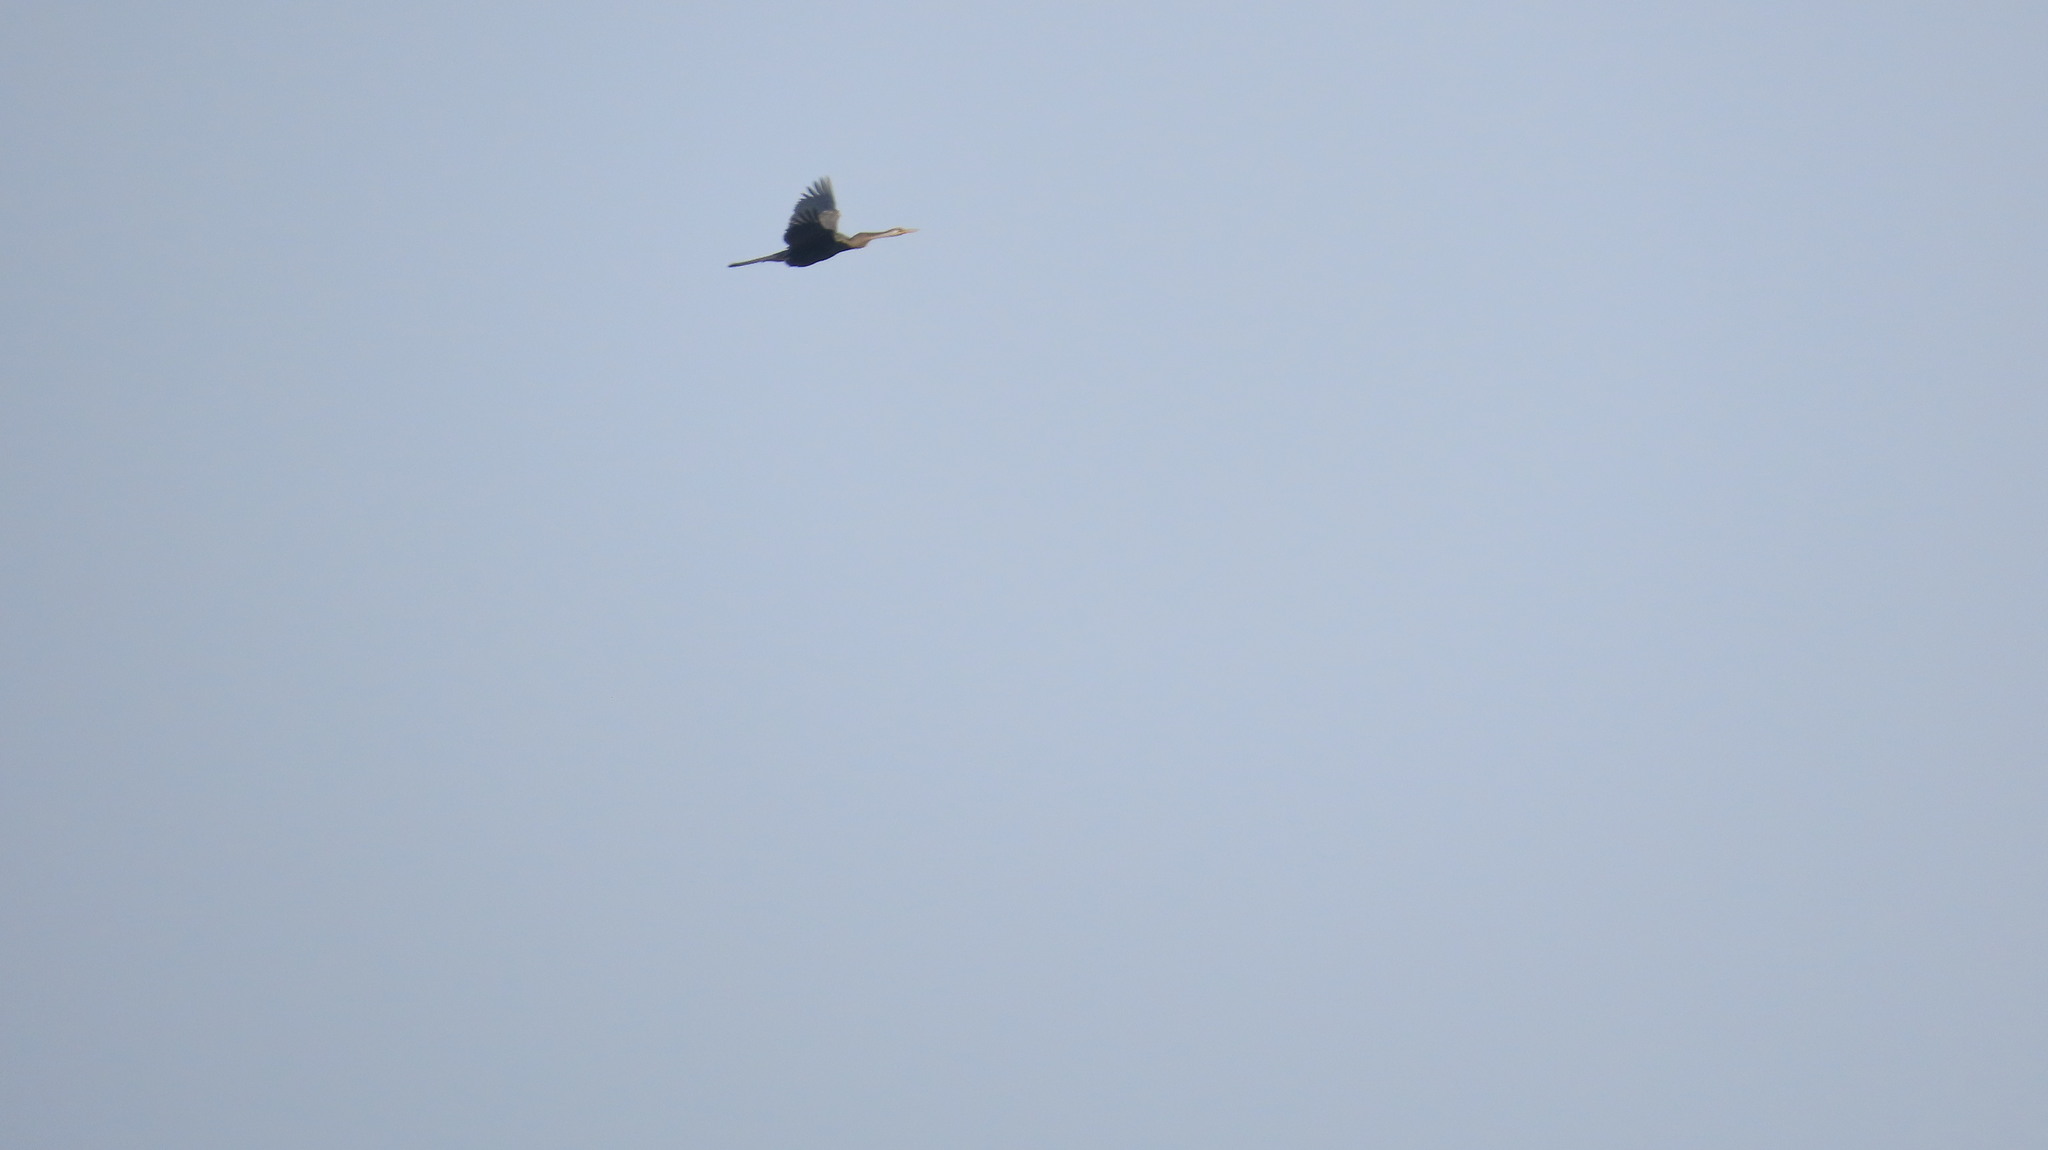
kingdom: Animalia
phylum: Chordata
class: Aves
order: Suliformes
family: Anhingidae
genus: Anhinga
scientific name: Anhinga melanogaster
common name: Oriental darter
